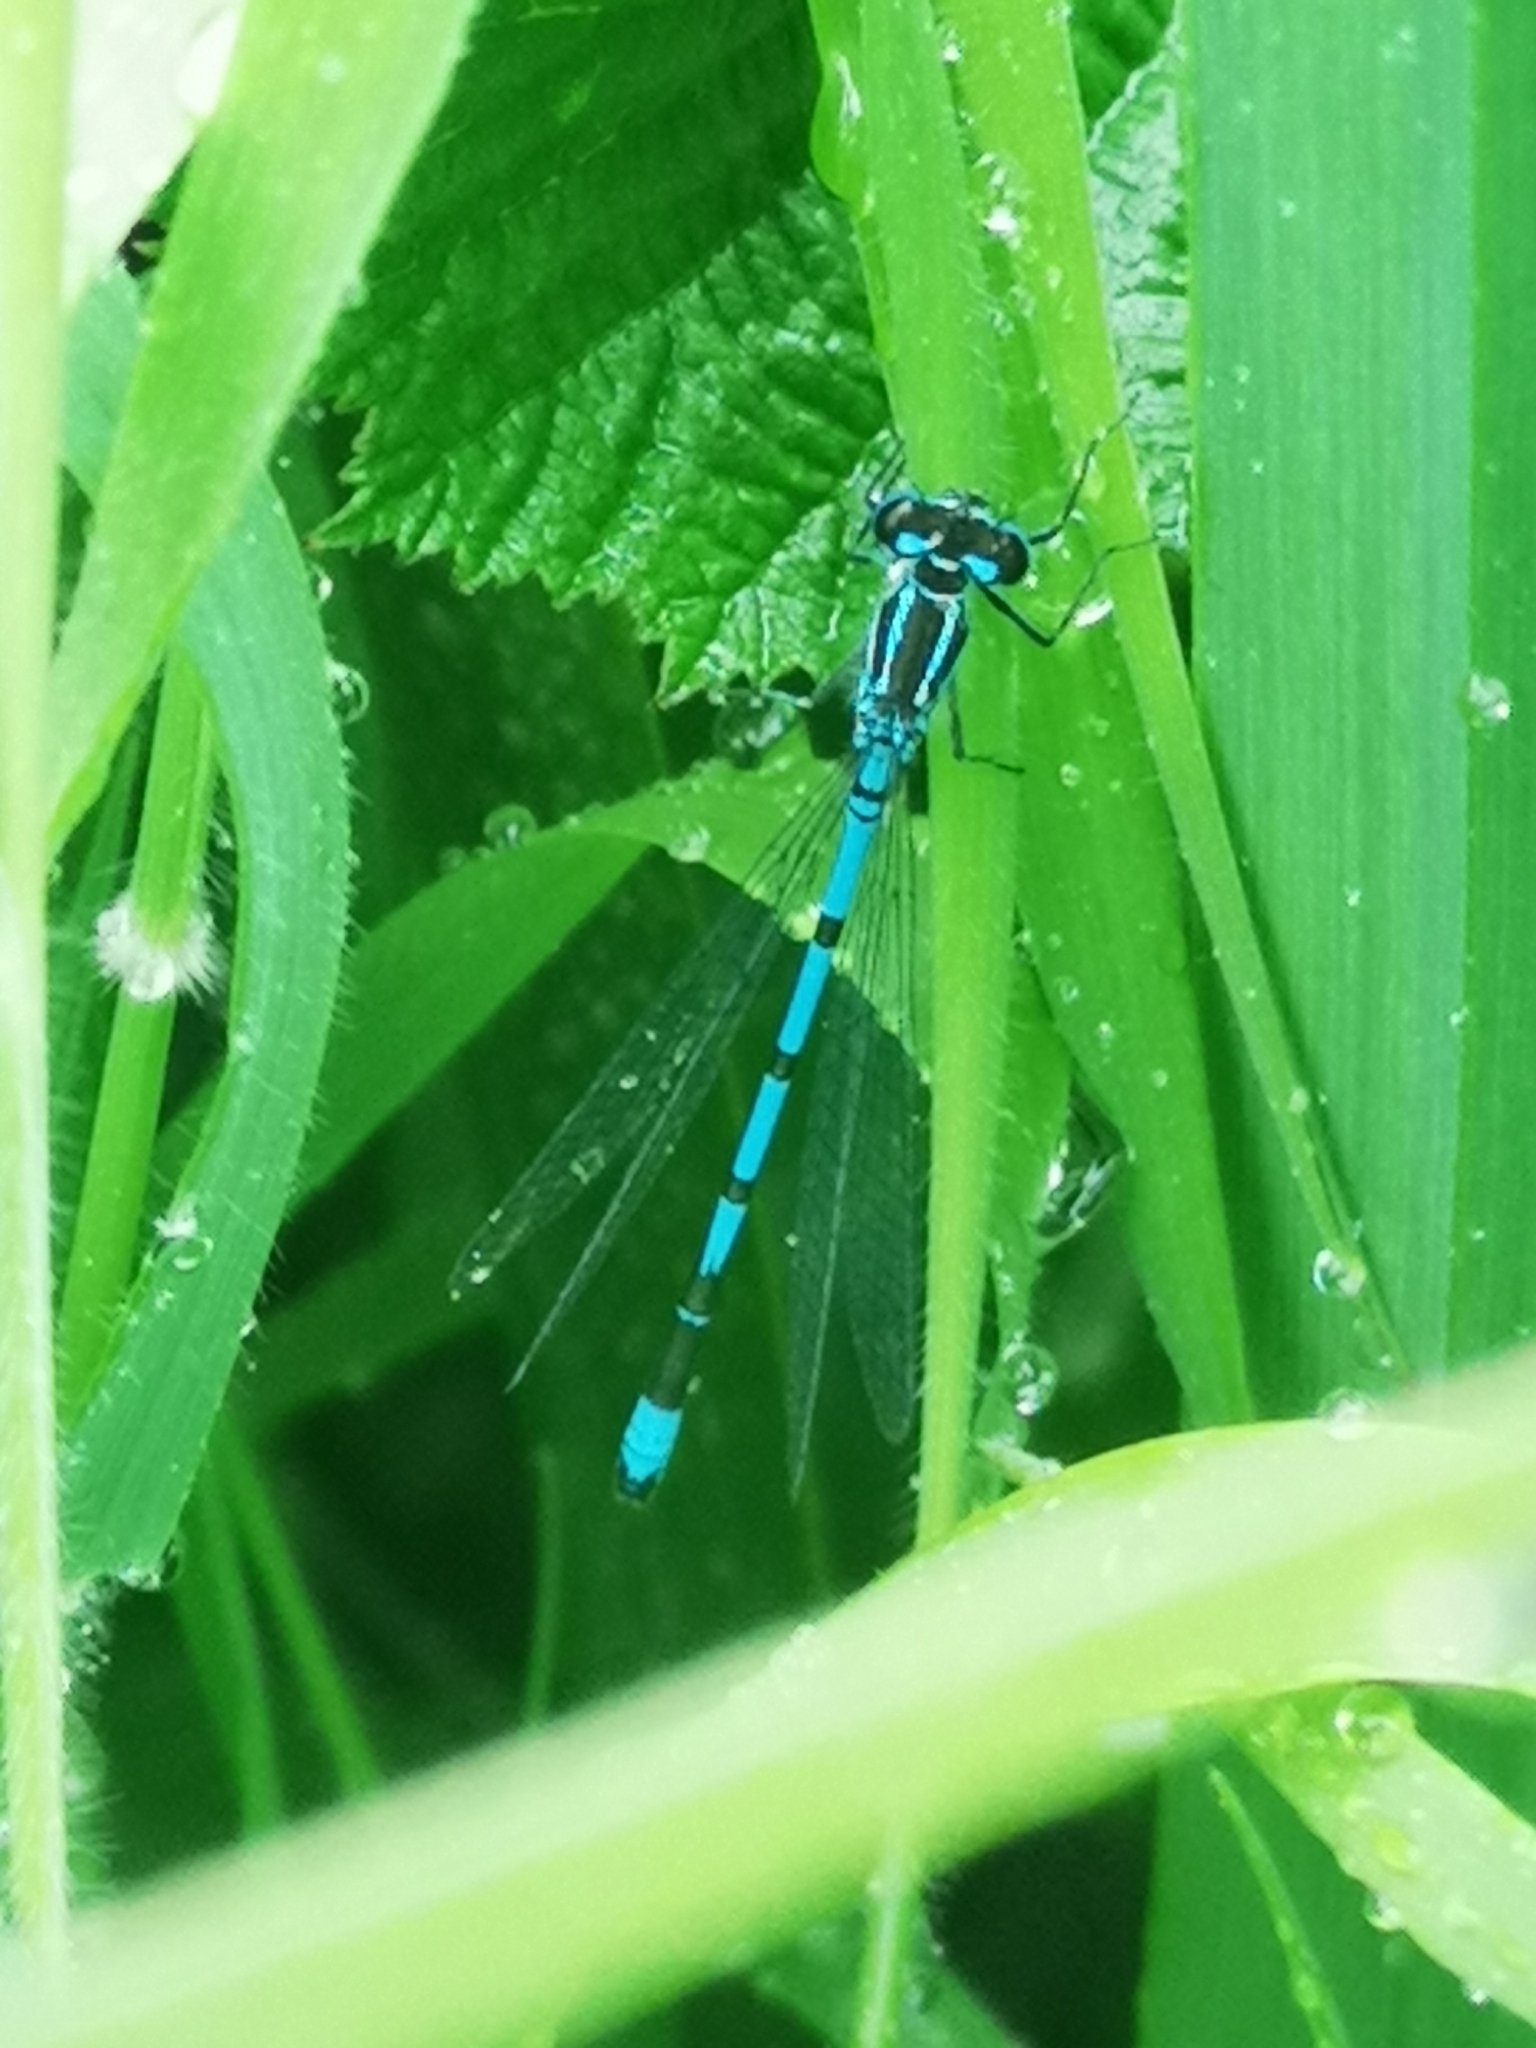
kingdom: Animalia
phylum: Arthropoda
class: Insecta
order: Odonata
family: Coenagrionidae
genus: Coenagrion
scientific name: Coenagrion puella
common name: Azure damselfly
